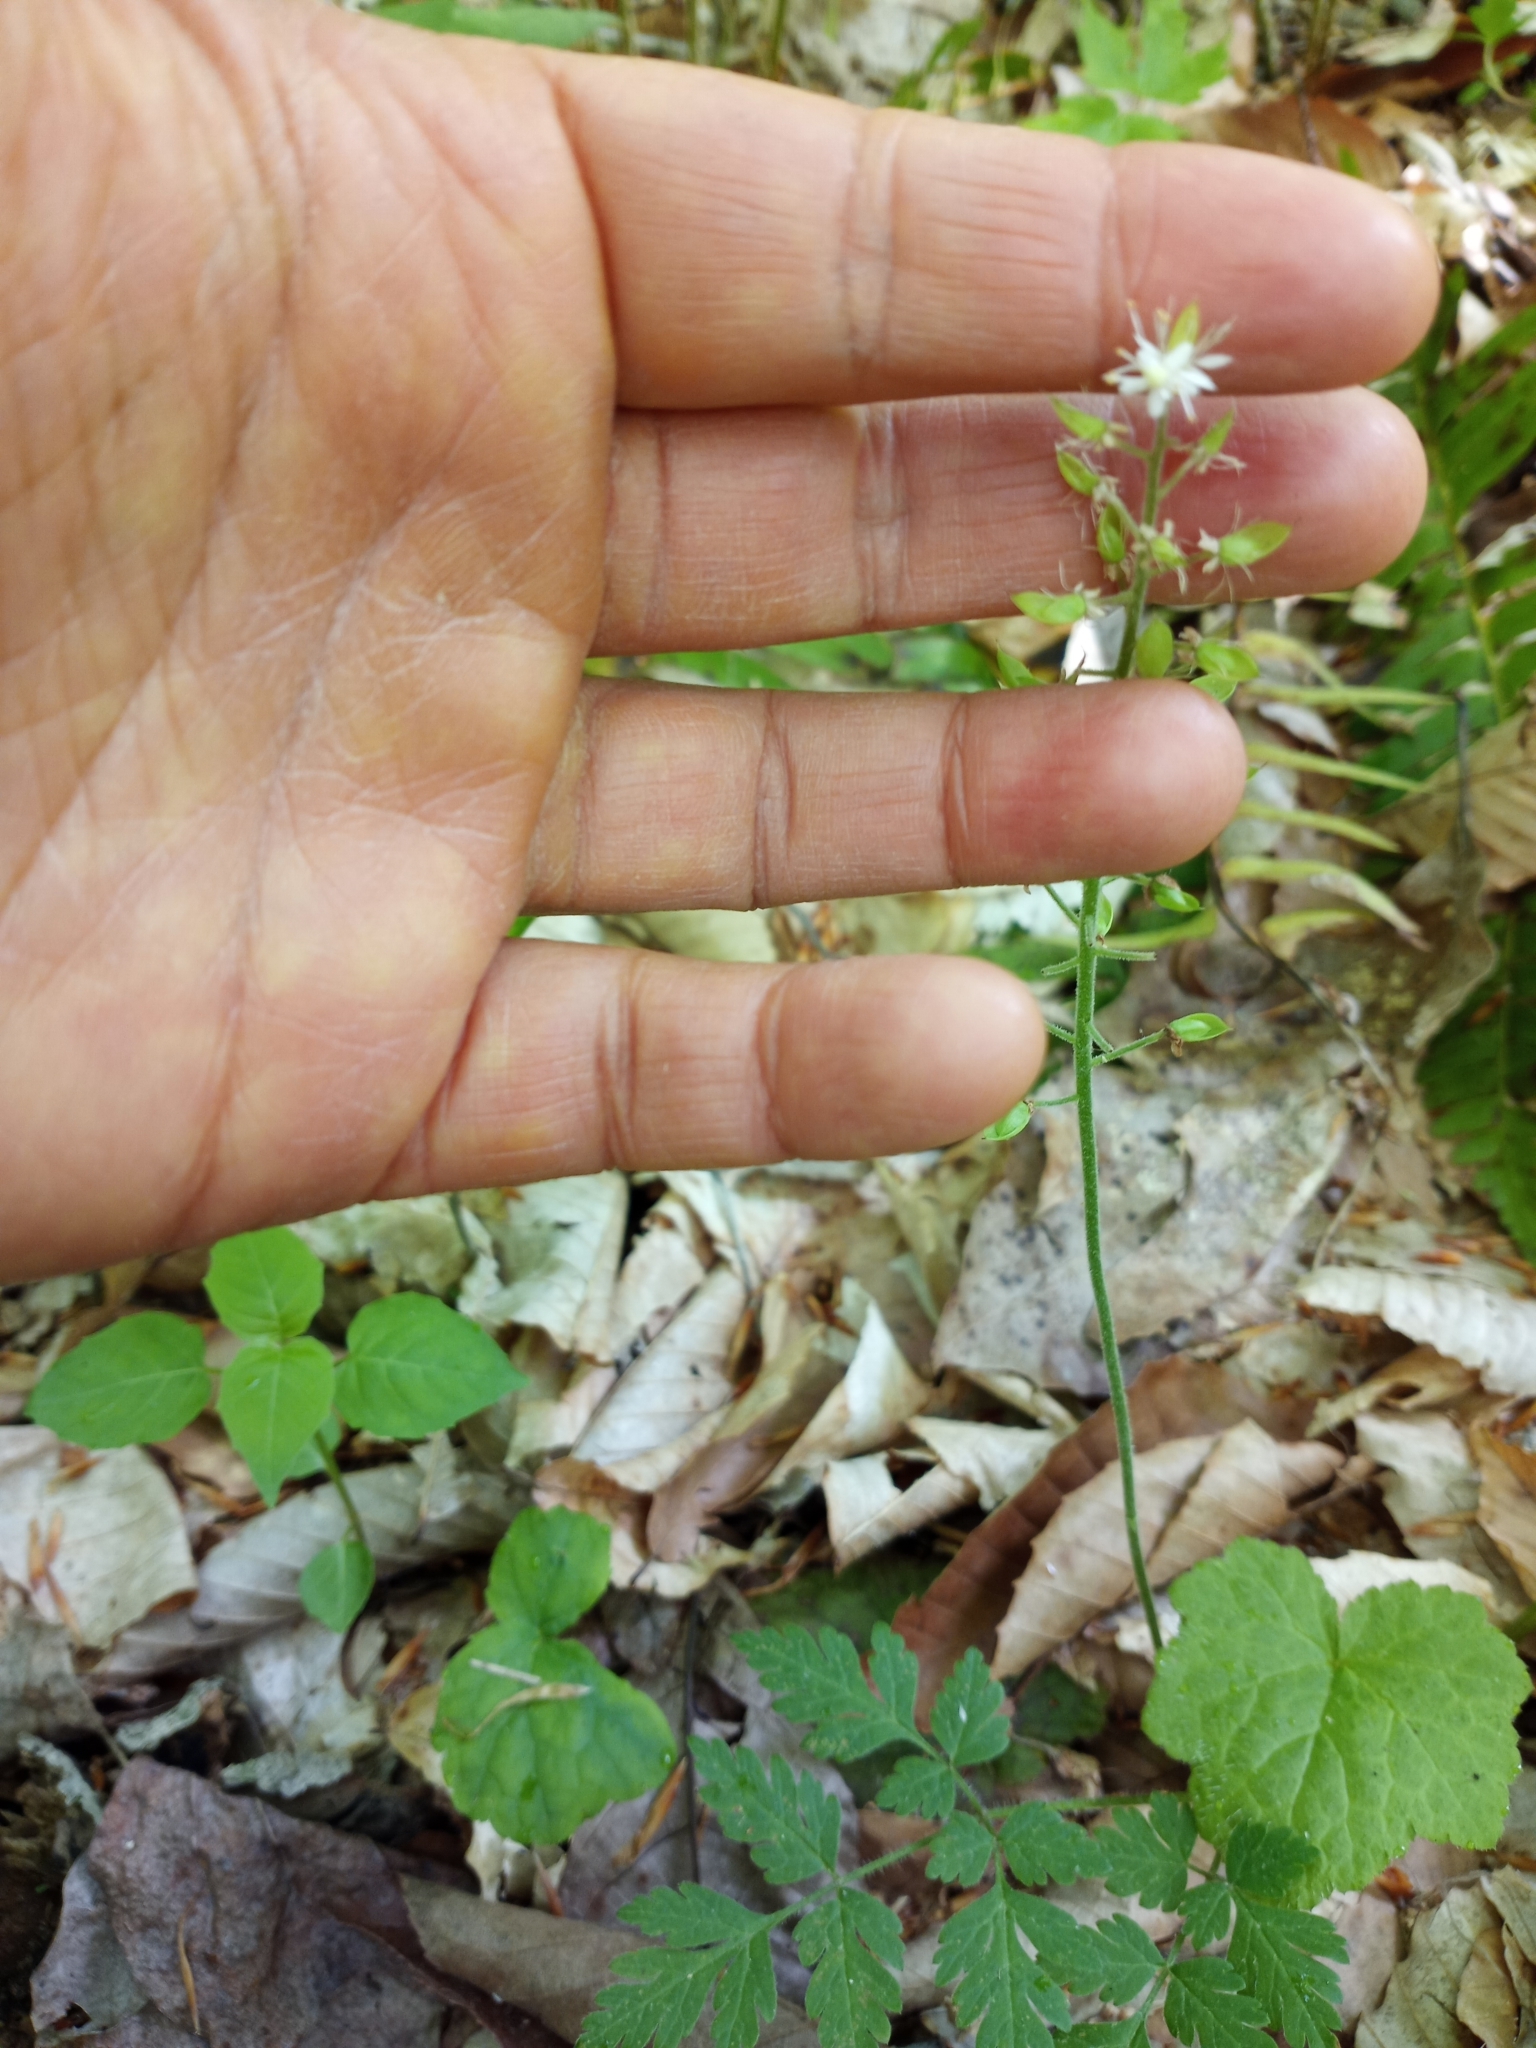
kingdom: Plantae
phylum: Tracheophyta
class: Magnoliopsida
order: Saxifragales
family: Saxifragaceae
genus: Tiarella
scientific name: Tiarella stolonifera
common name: Stoloniferous foamflower
